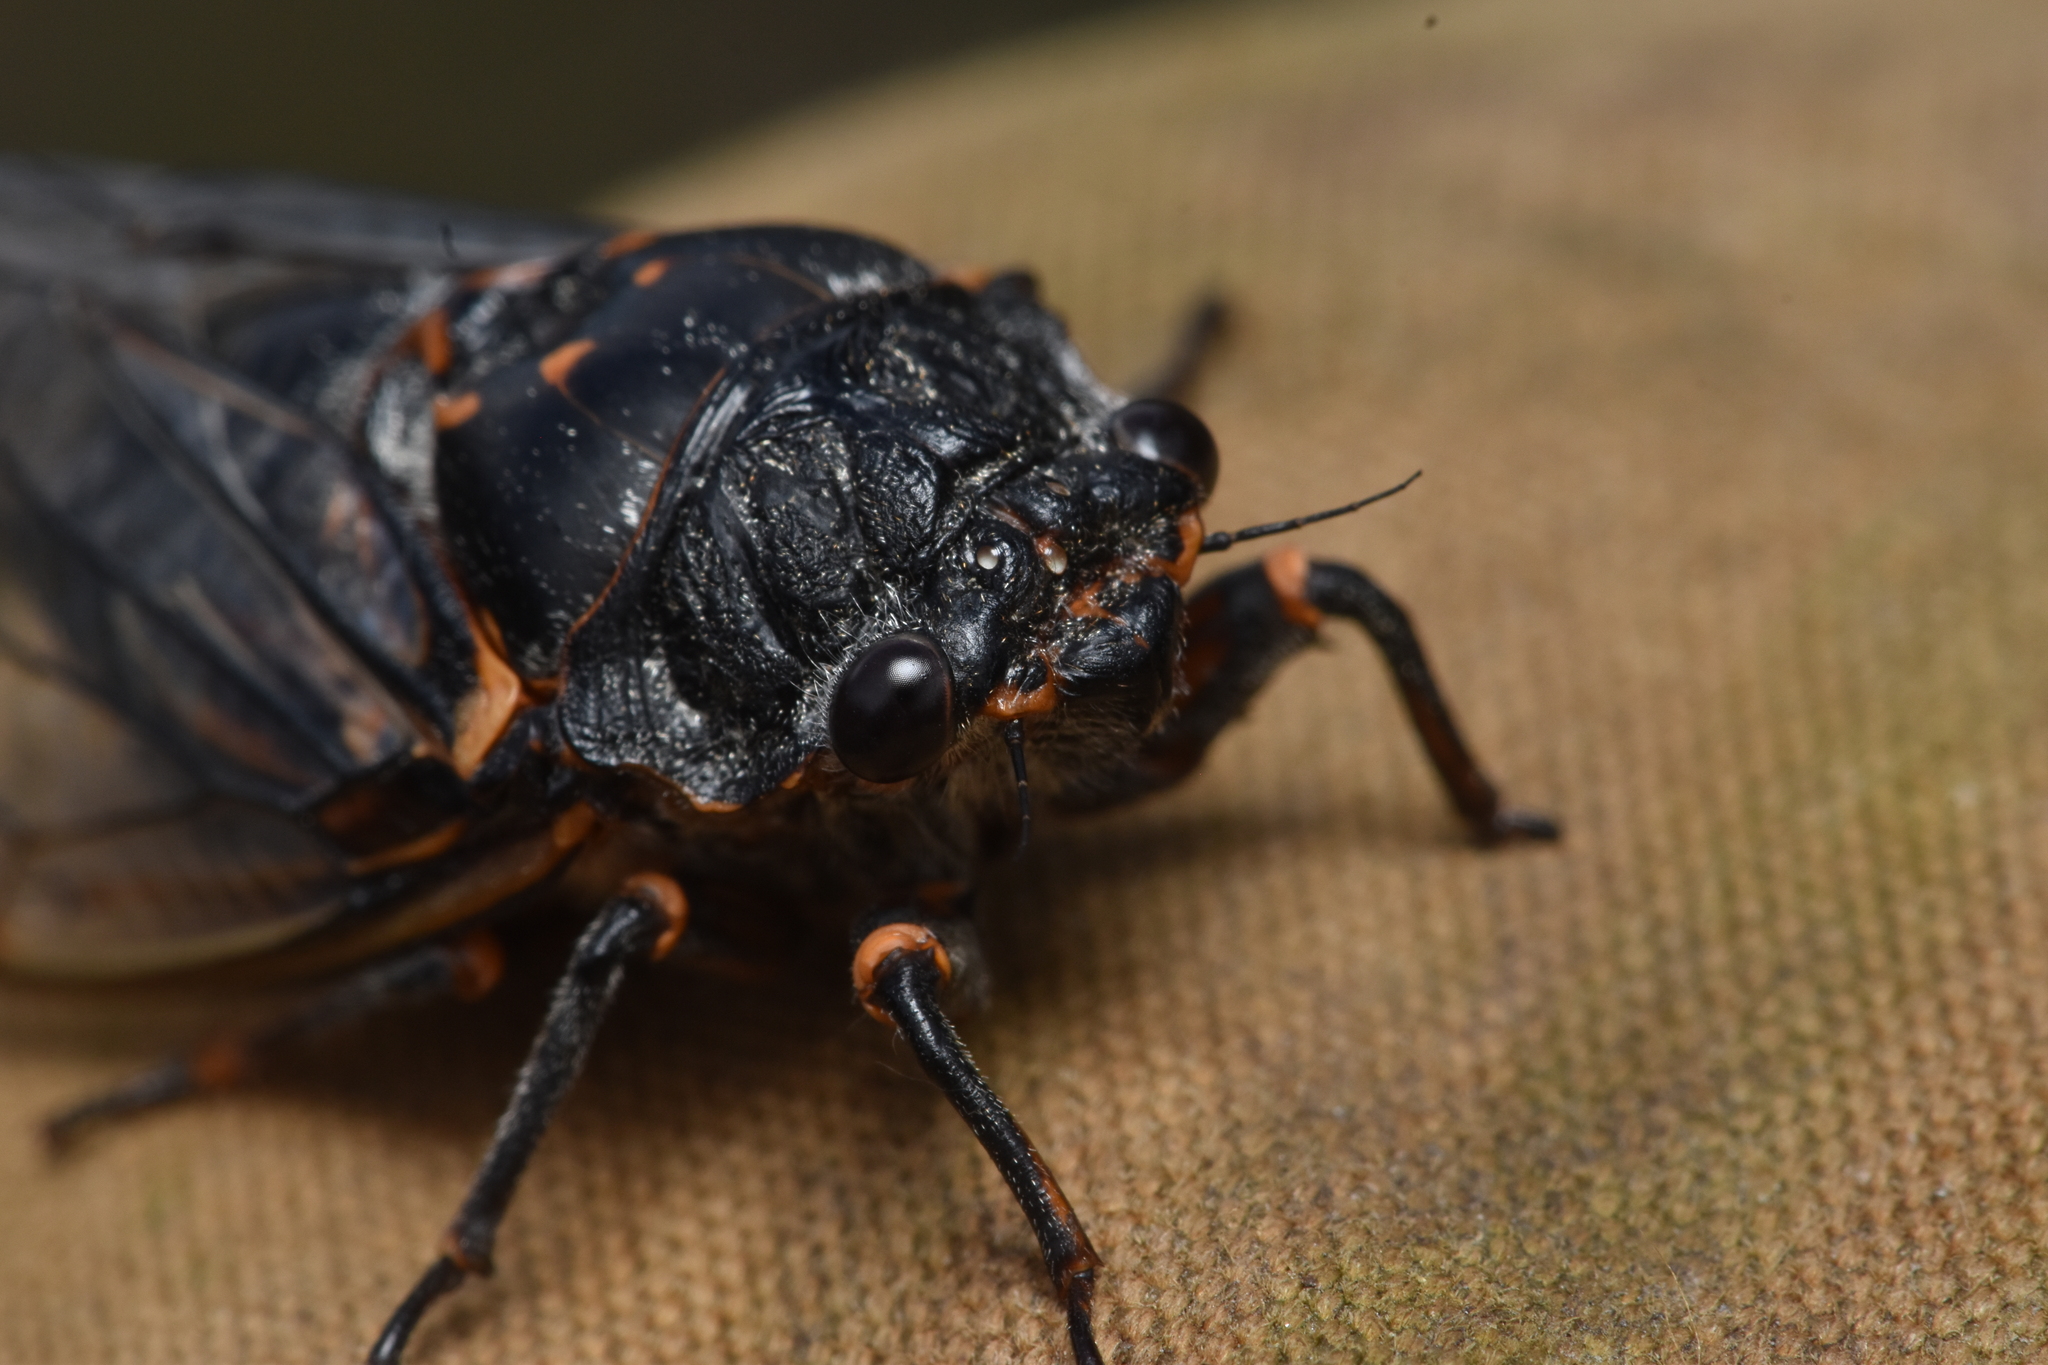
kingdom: Animalia
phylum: Arthropoda
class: Insecta
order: Hemiptera
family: Cicadidae
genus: Okanagana
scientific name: Okanagana occidentalis
